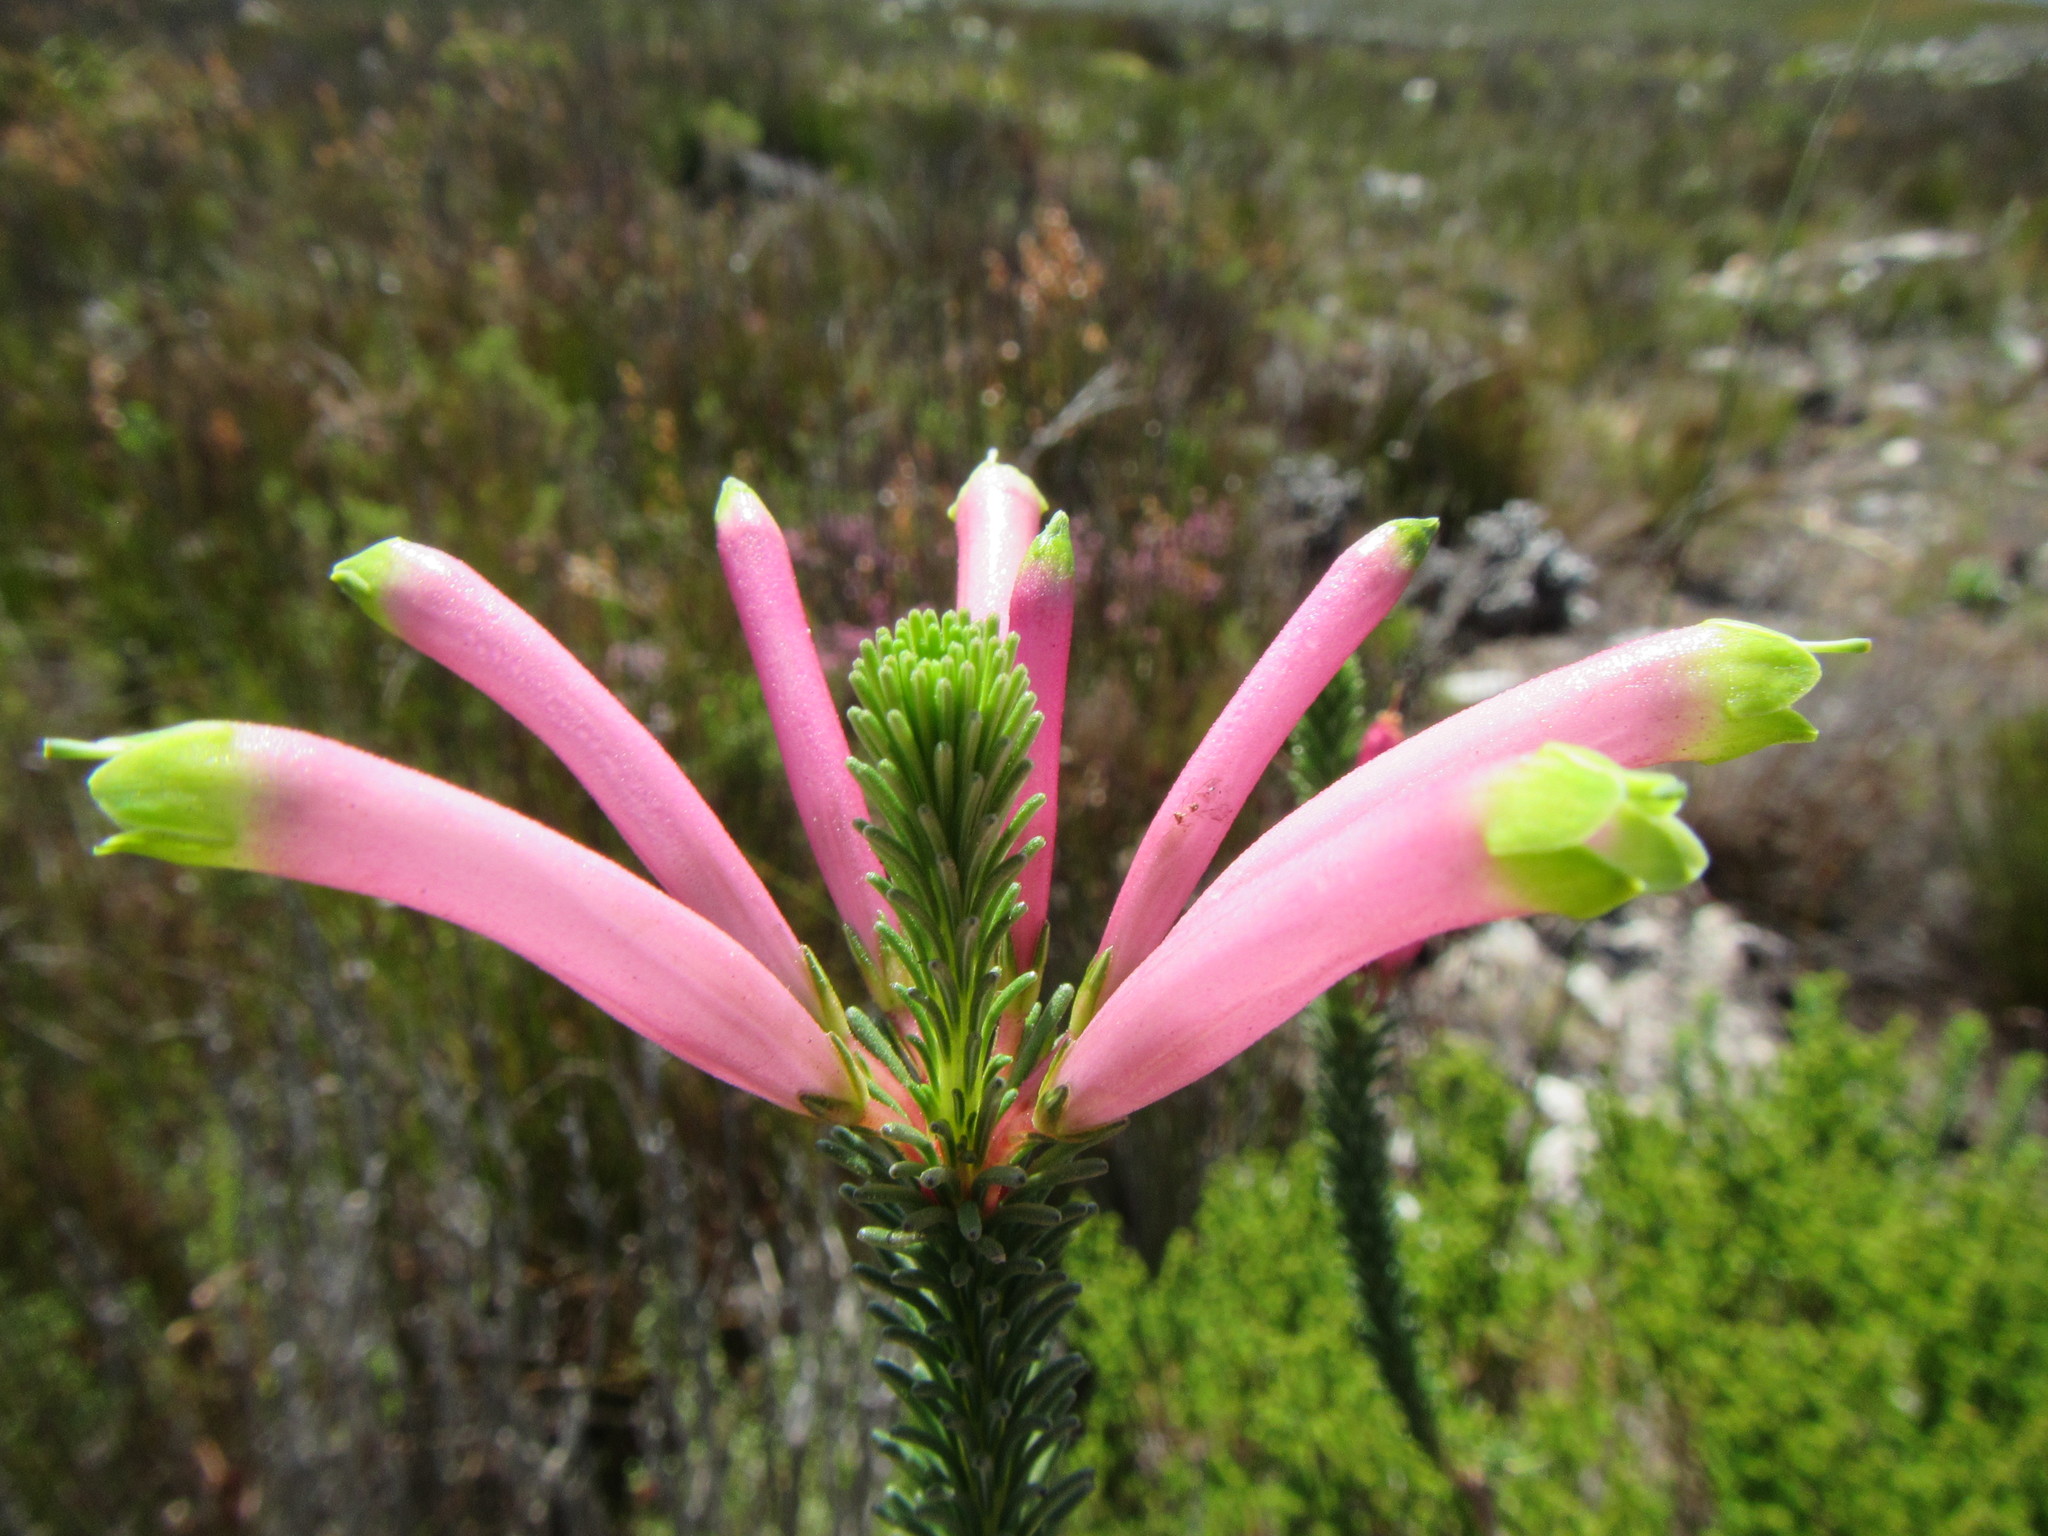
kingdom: Plantae
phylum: Tracheophyta
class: Magnoliopsida
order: Ericales
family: Ericaceae
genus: Erica
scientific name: Erica fascicularis
